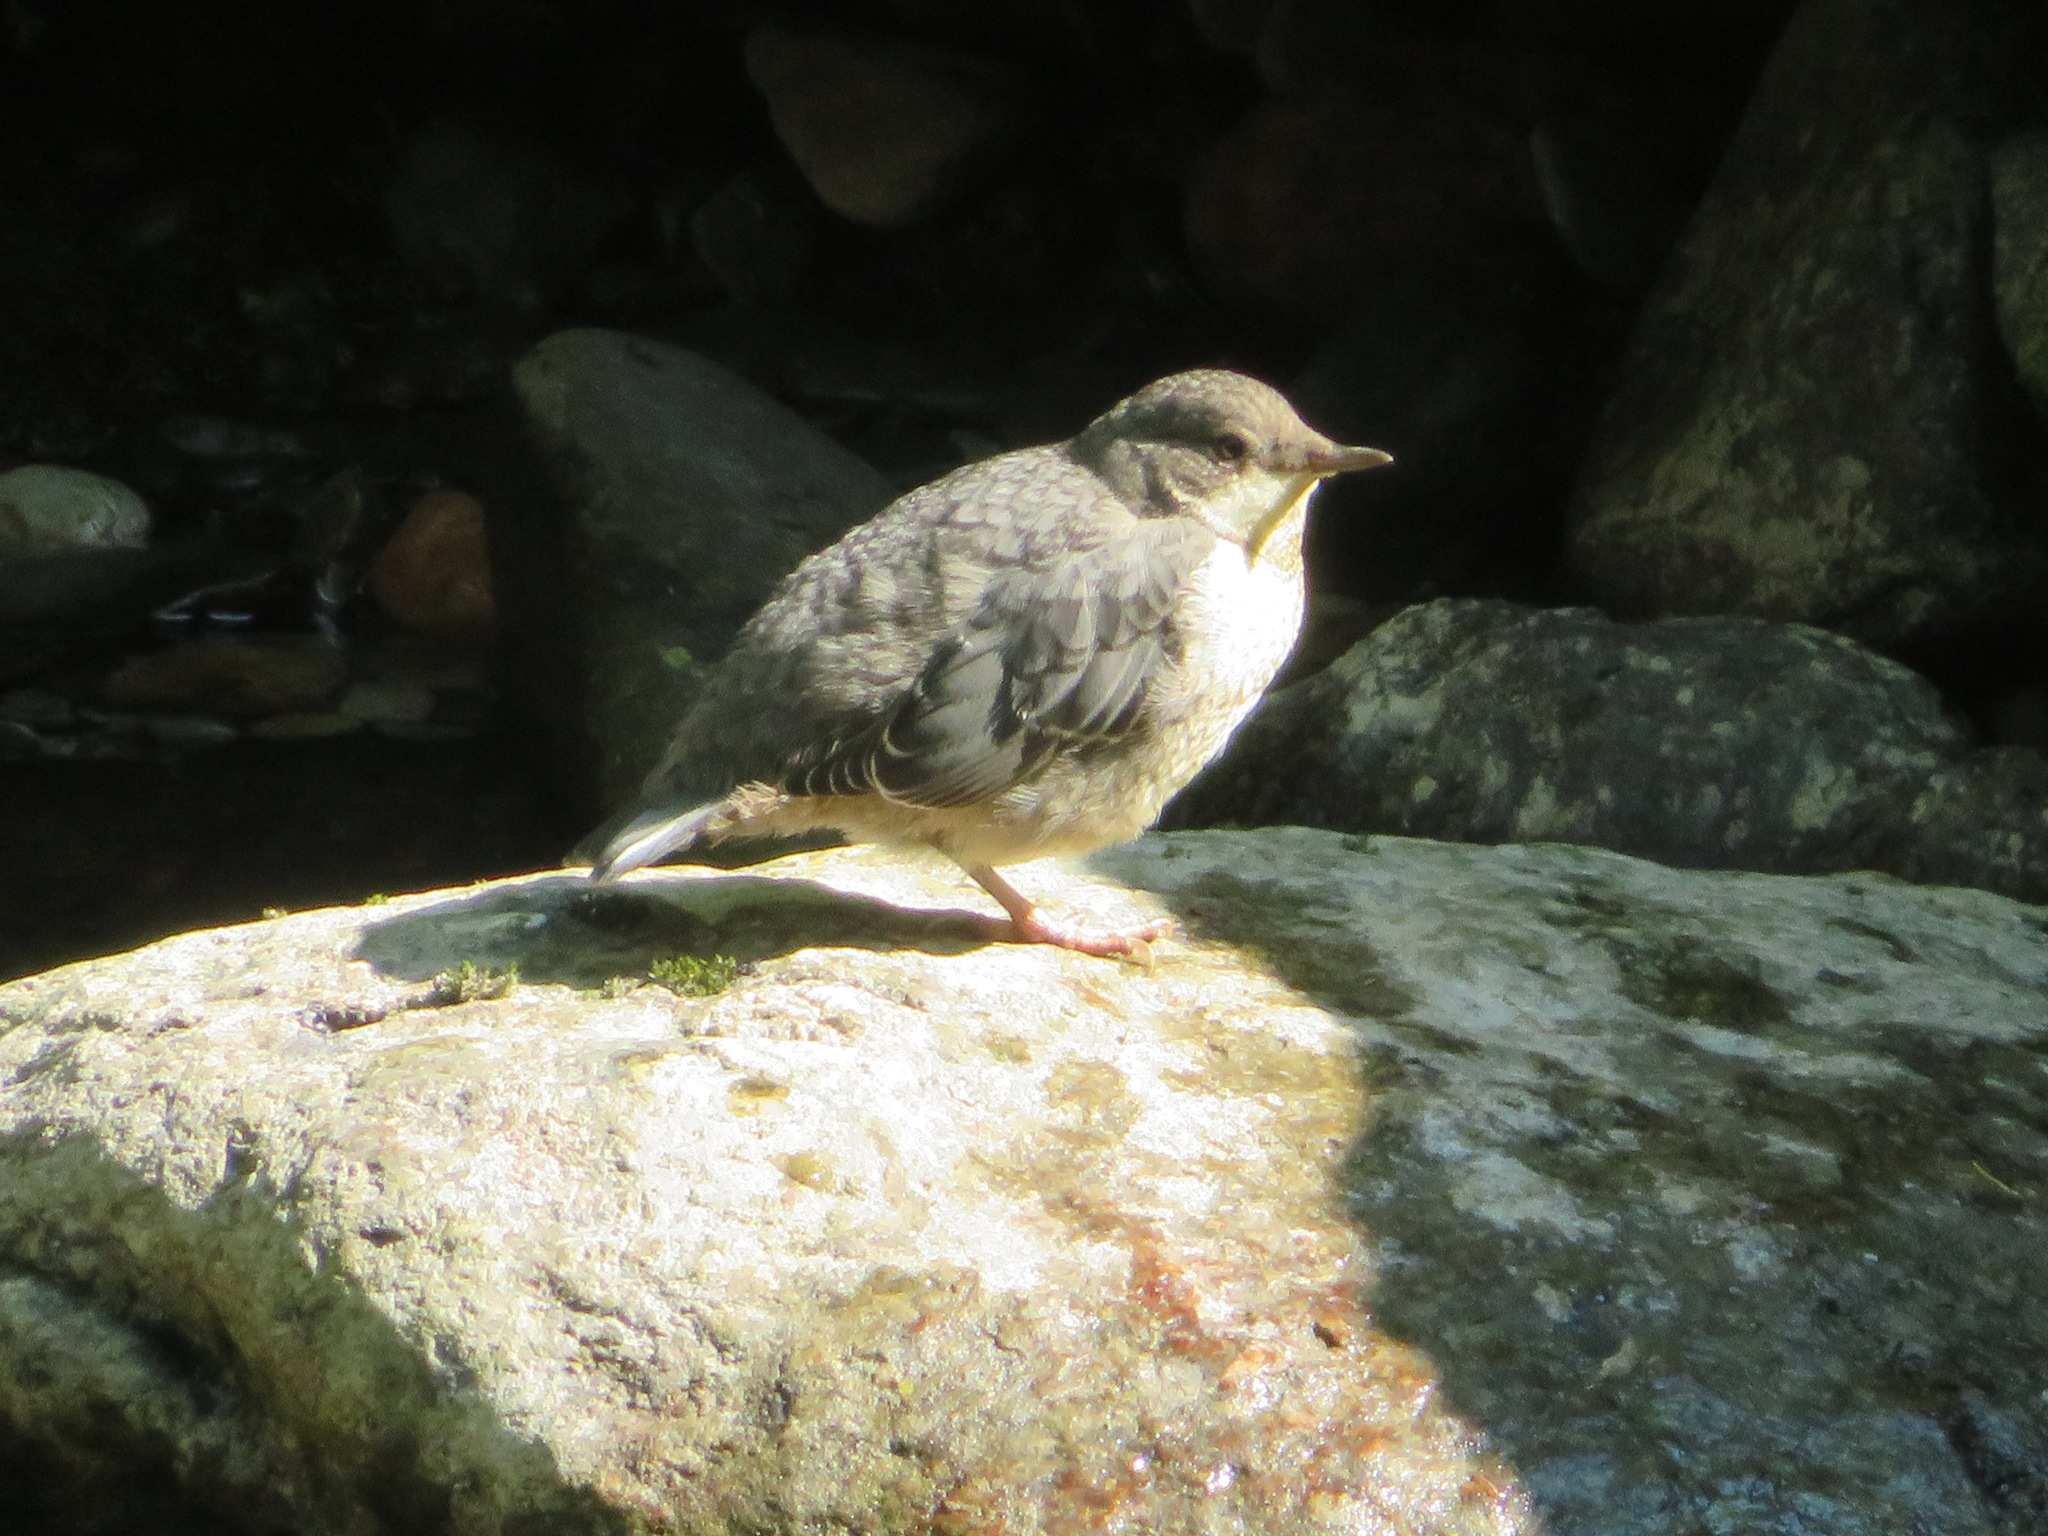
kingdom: Animalia
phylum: Chordata
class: Aves
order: Passeriformes
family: Cinclidae
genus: Cinclus
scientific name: Cinclus cinclus
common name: White-throated dipper
